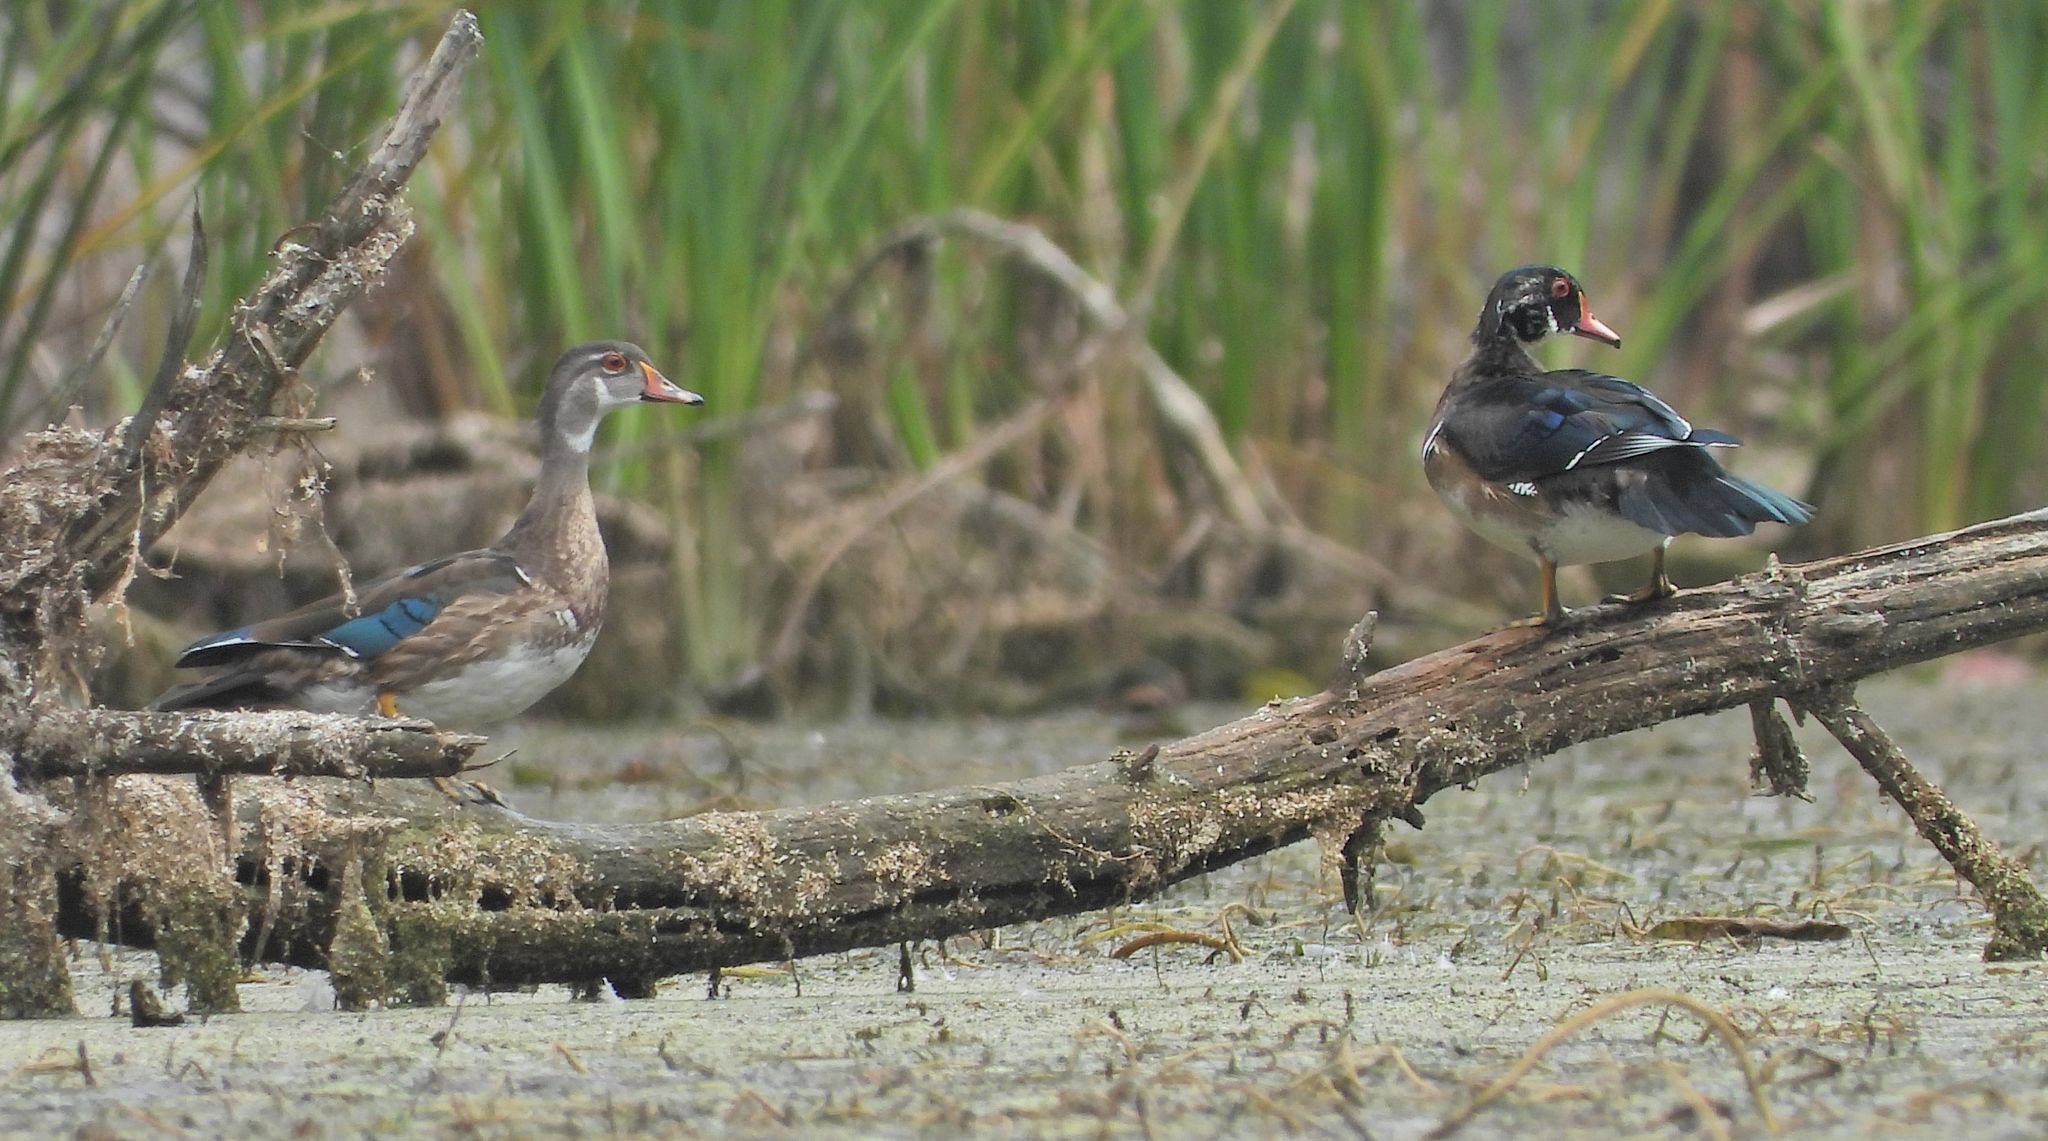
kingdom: Animalia
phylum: Chordata
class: Aves
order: Anseriformes
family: Anatidae
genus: Aix
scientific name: Aix sponsa
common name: Wood duck
